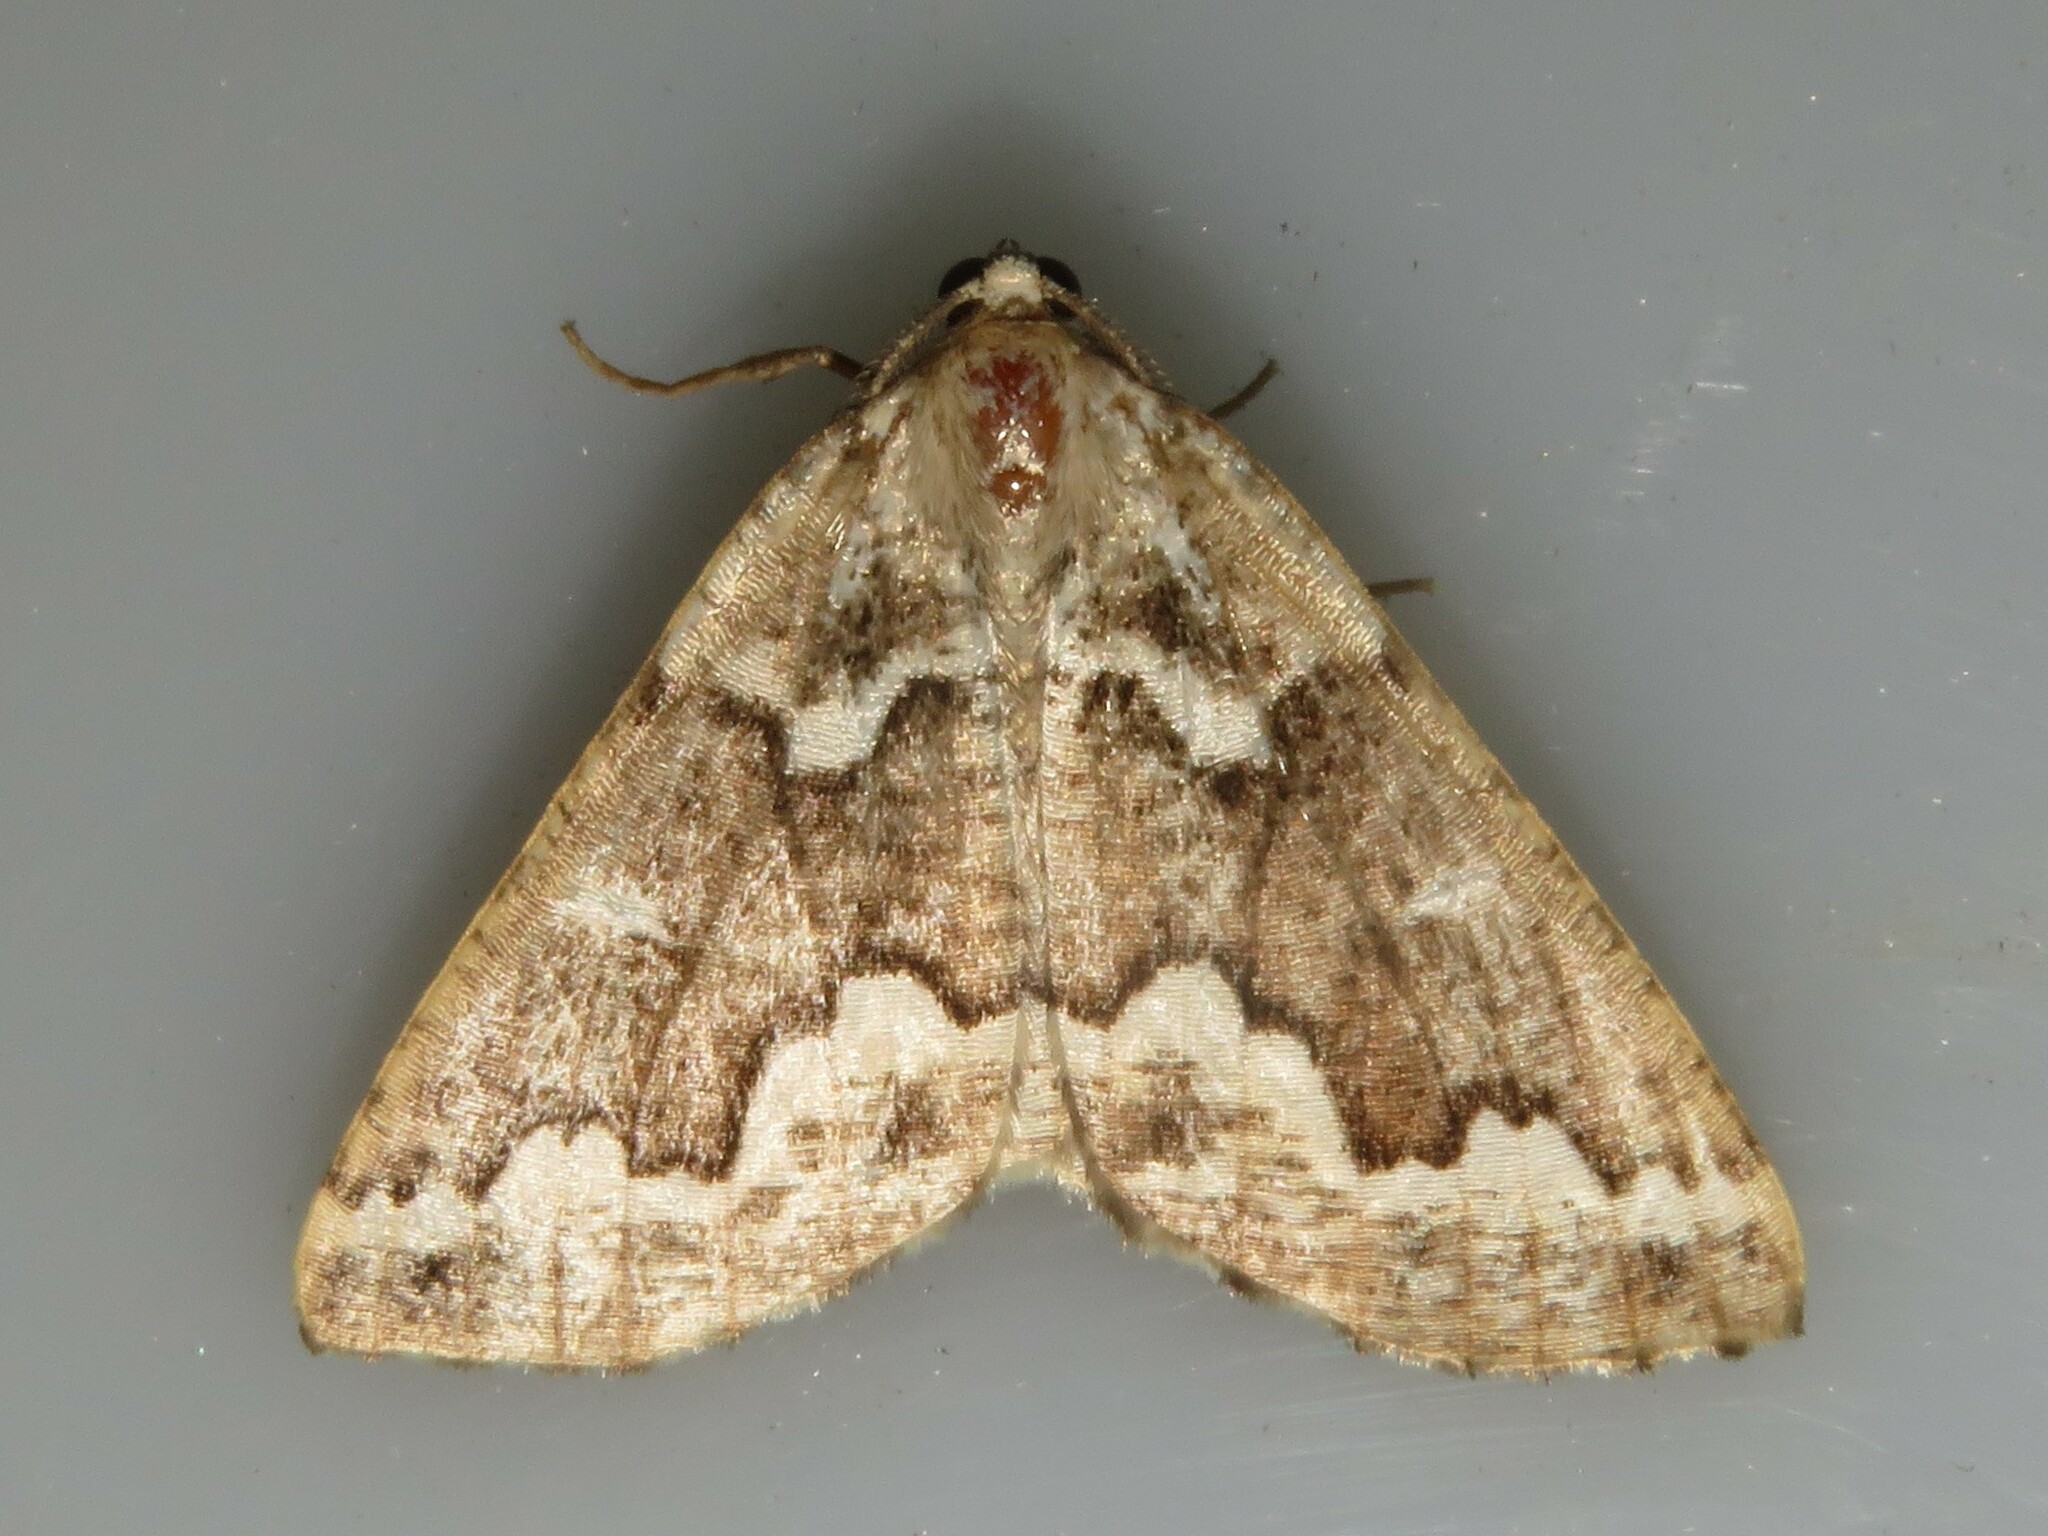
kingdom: Animalia
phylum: Arthropoda
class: Insecta
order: Lepidoptera
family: Geometridae
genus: Caripeta
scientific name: Caripeta divisata
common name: Gray spruce looper
